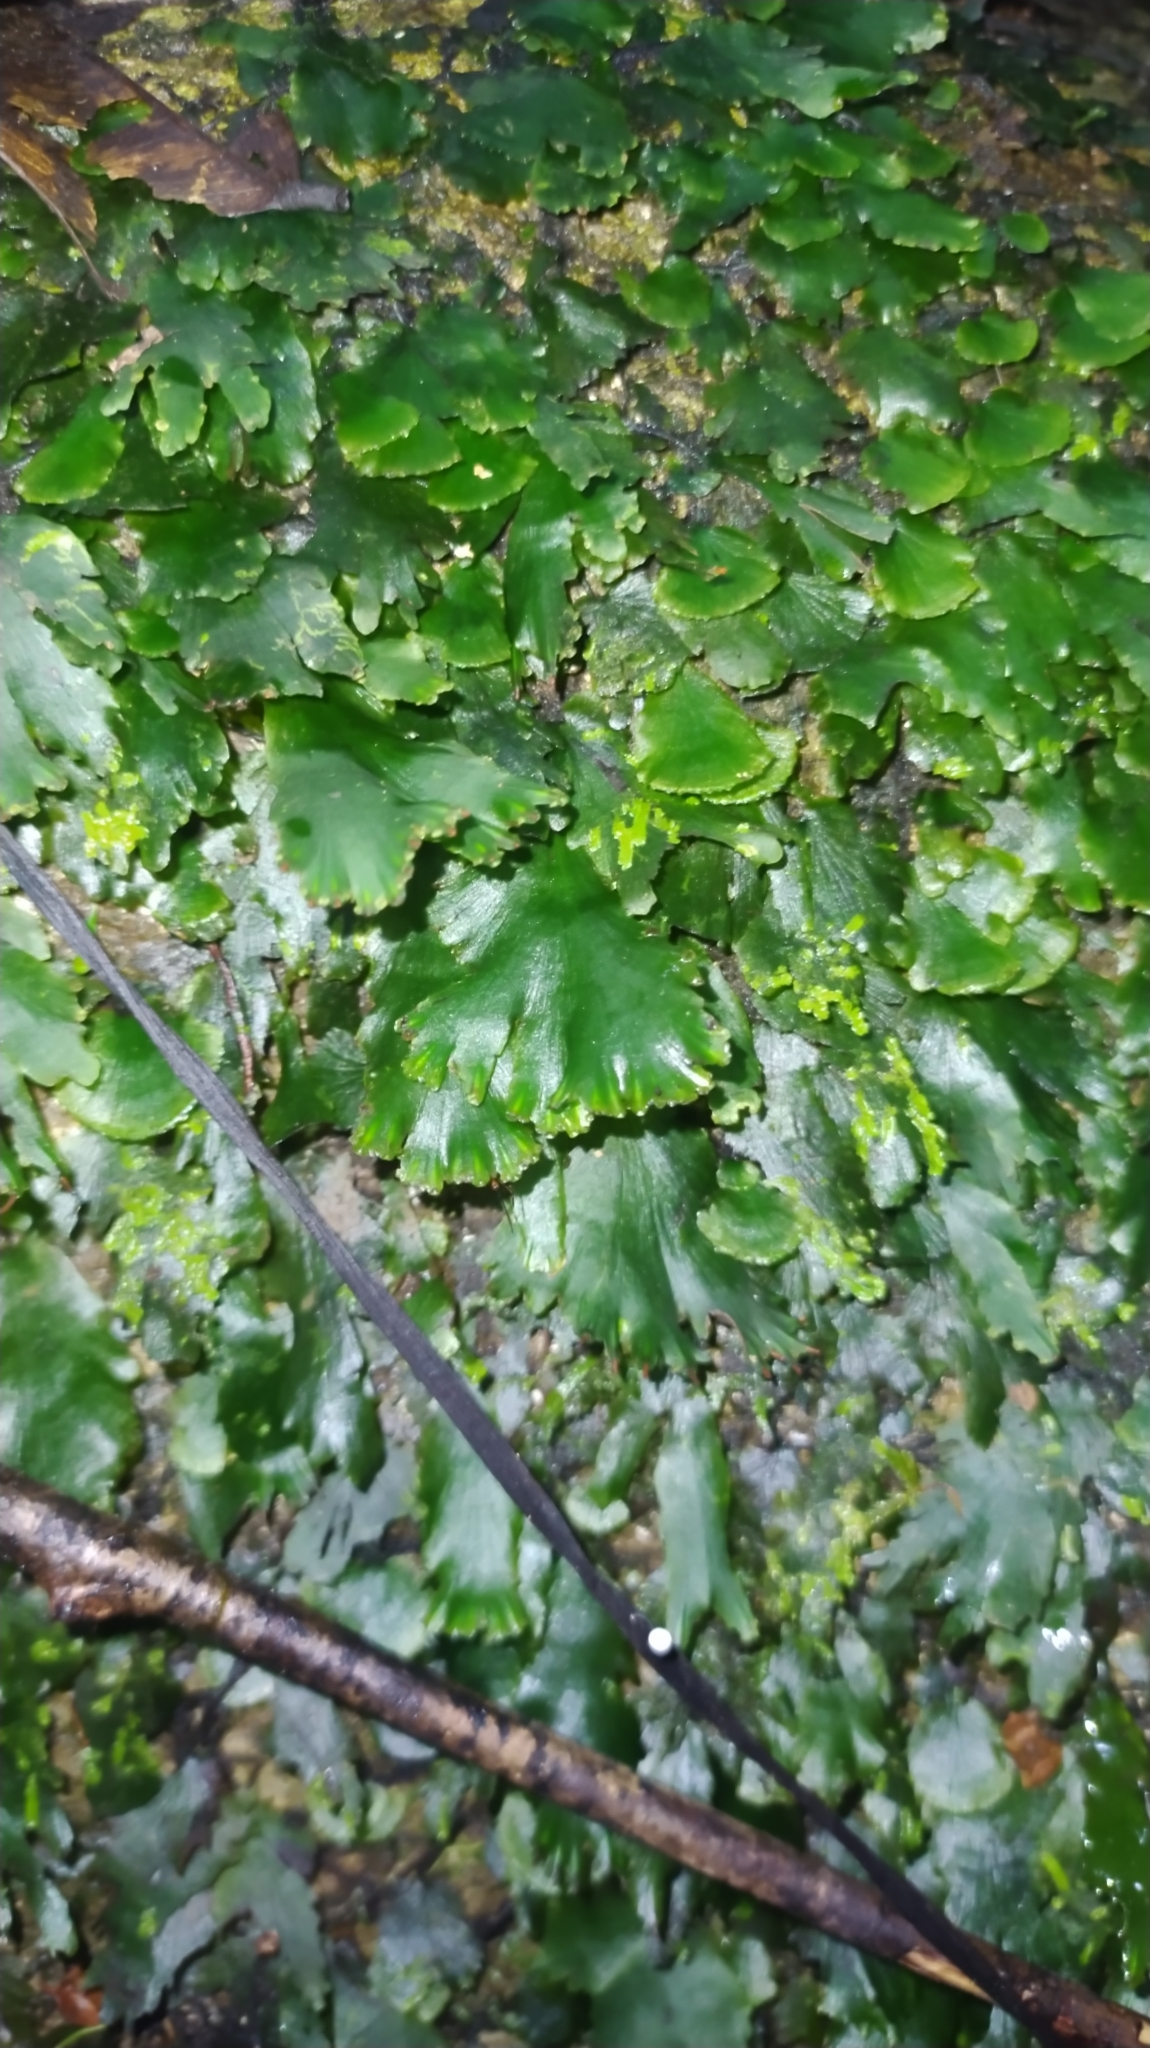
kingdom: Plantae
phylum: Tracheophyta
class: Polypodiopsida
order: Hymenophyllales
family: Hymenophyllaceae
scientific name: Hymenophyllaceae
